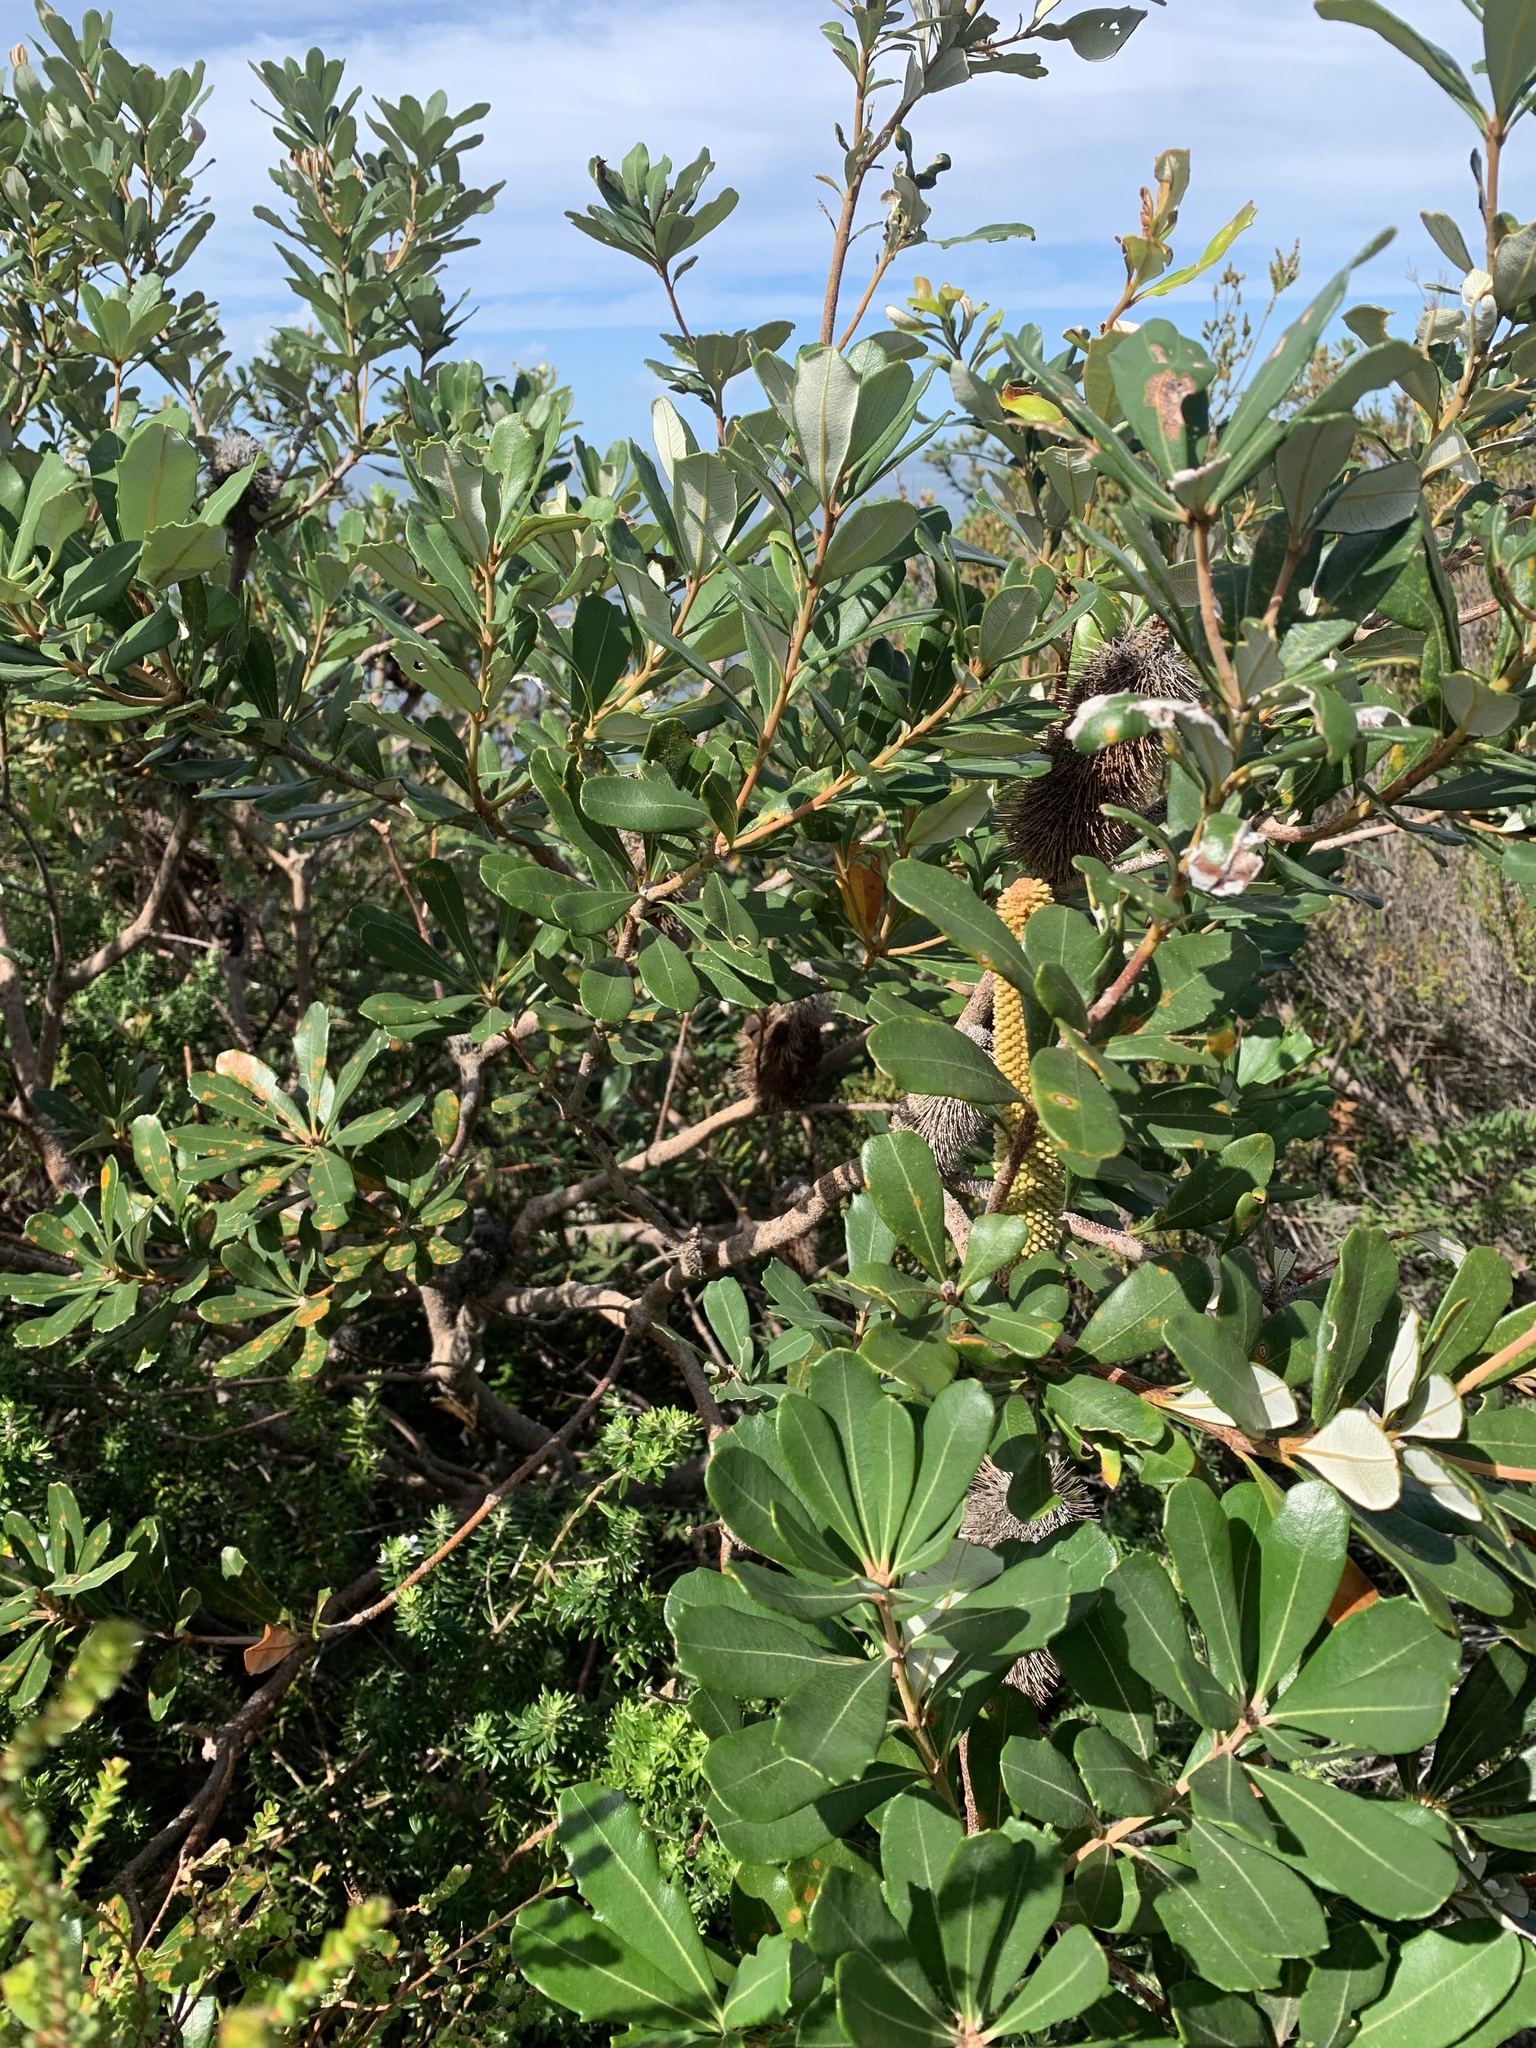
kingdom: Plantae
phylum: Tracheophyta
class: Magnoliopsida
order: Proteales
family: Proteaceae
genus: Banksia
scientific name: Banksia paludosa
